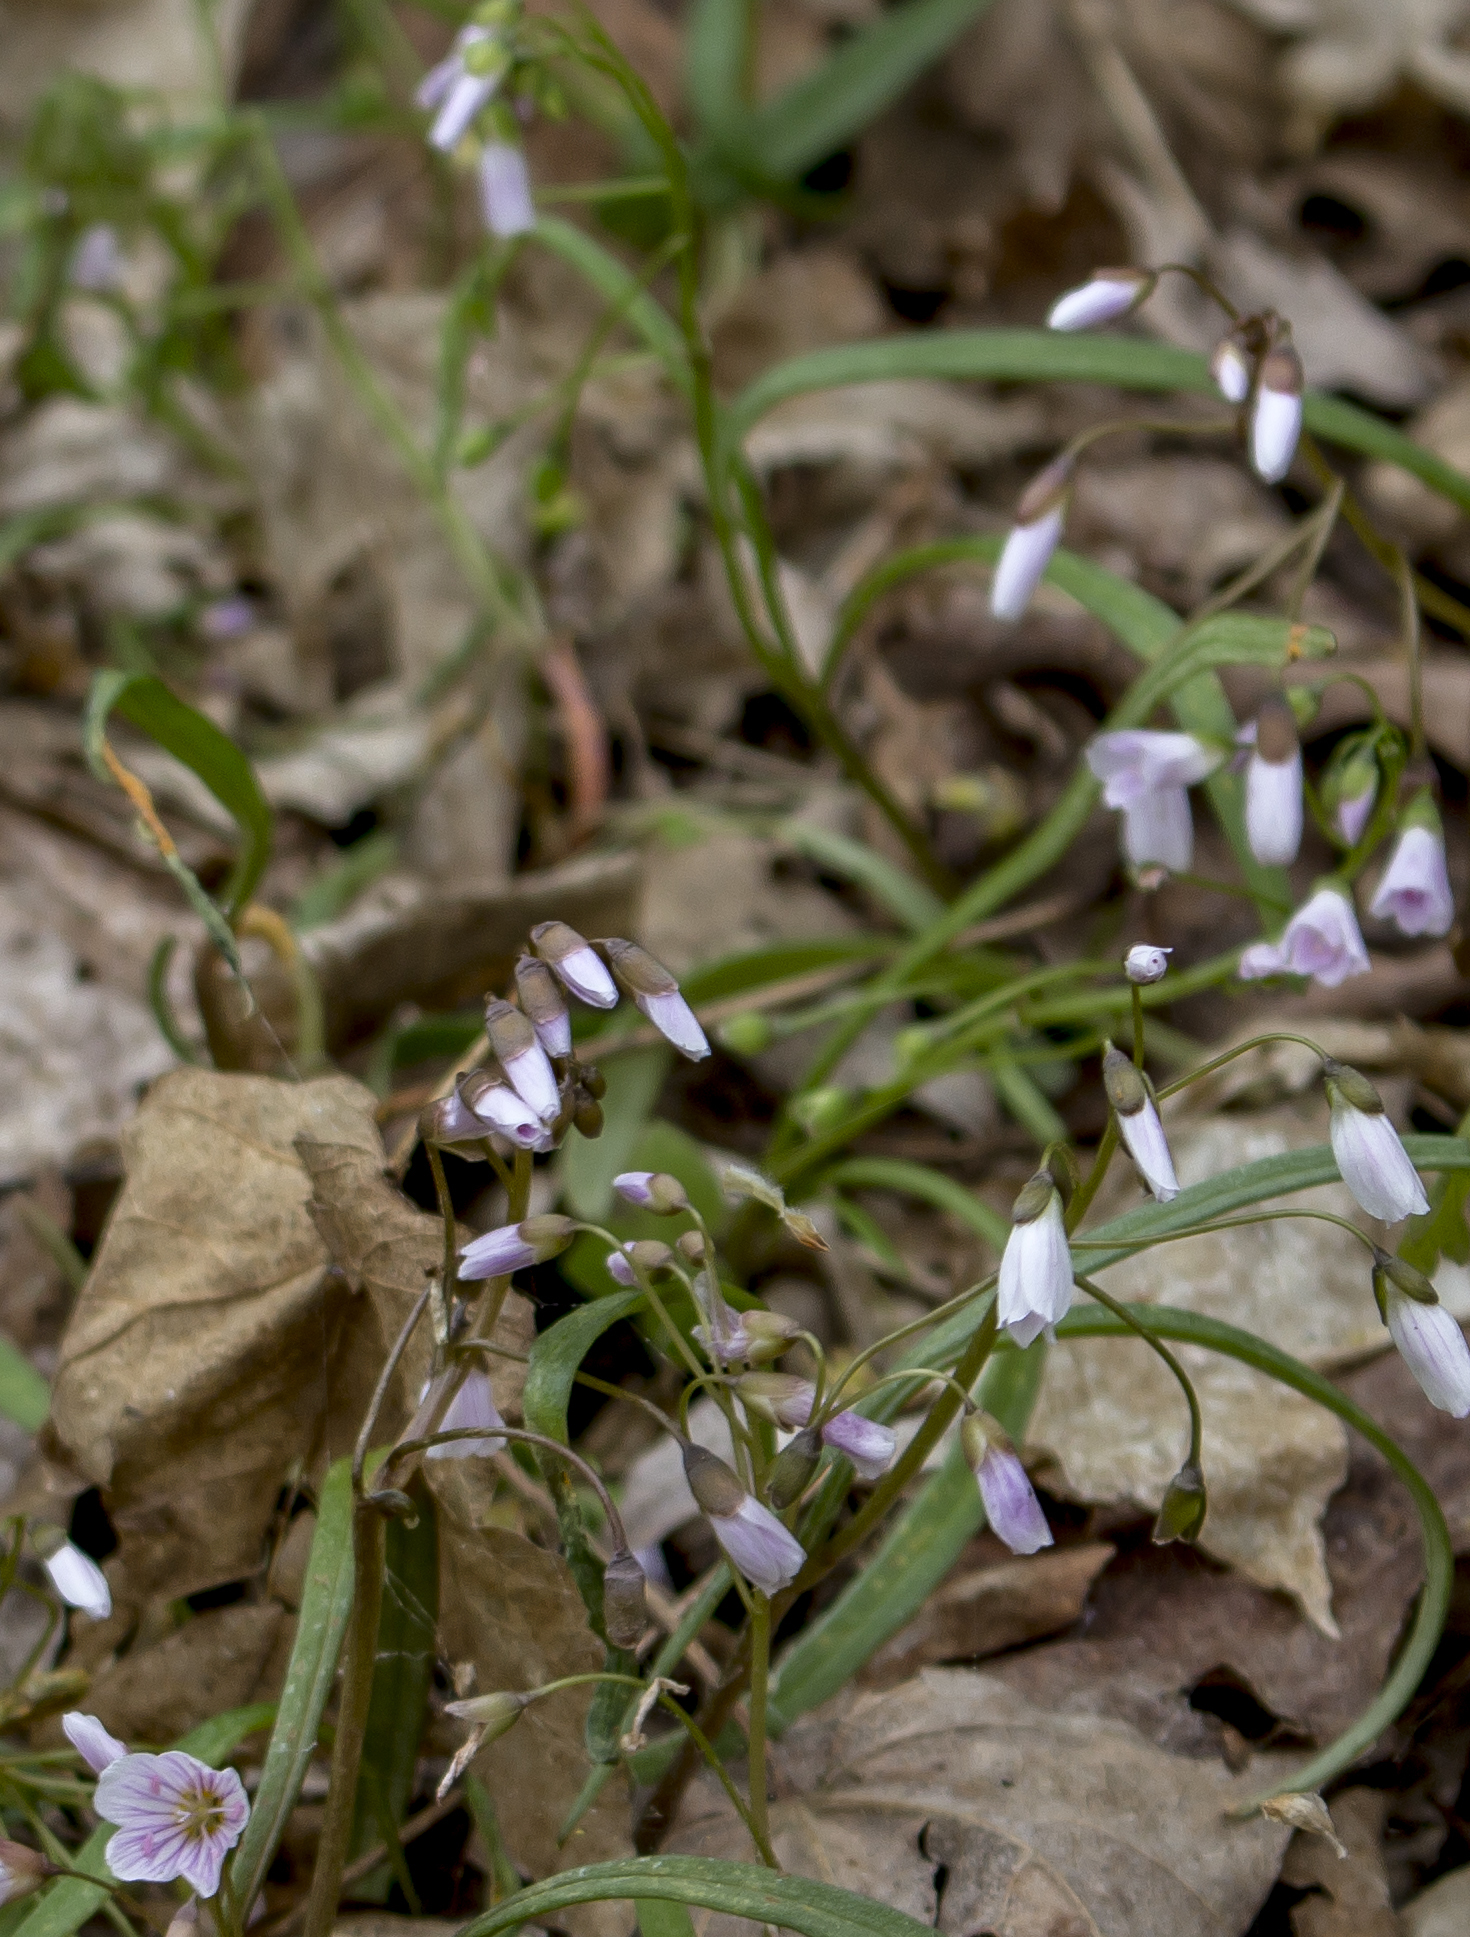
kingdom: Plantae
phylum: Tracheophyta
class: Magnoliopsida
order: Caryophyllales
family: Montiaceae
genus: Claytonia
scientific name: Claytonia virginica
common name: Virginia springbeauty
